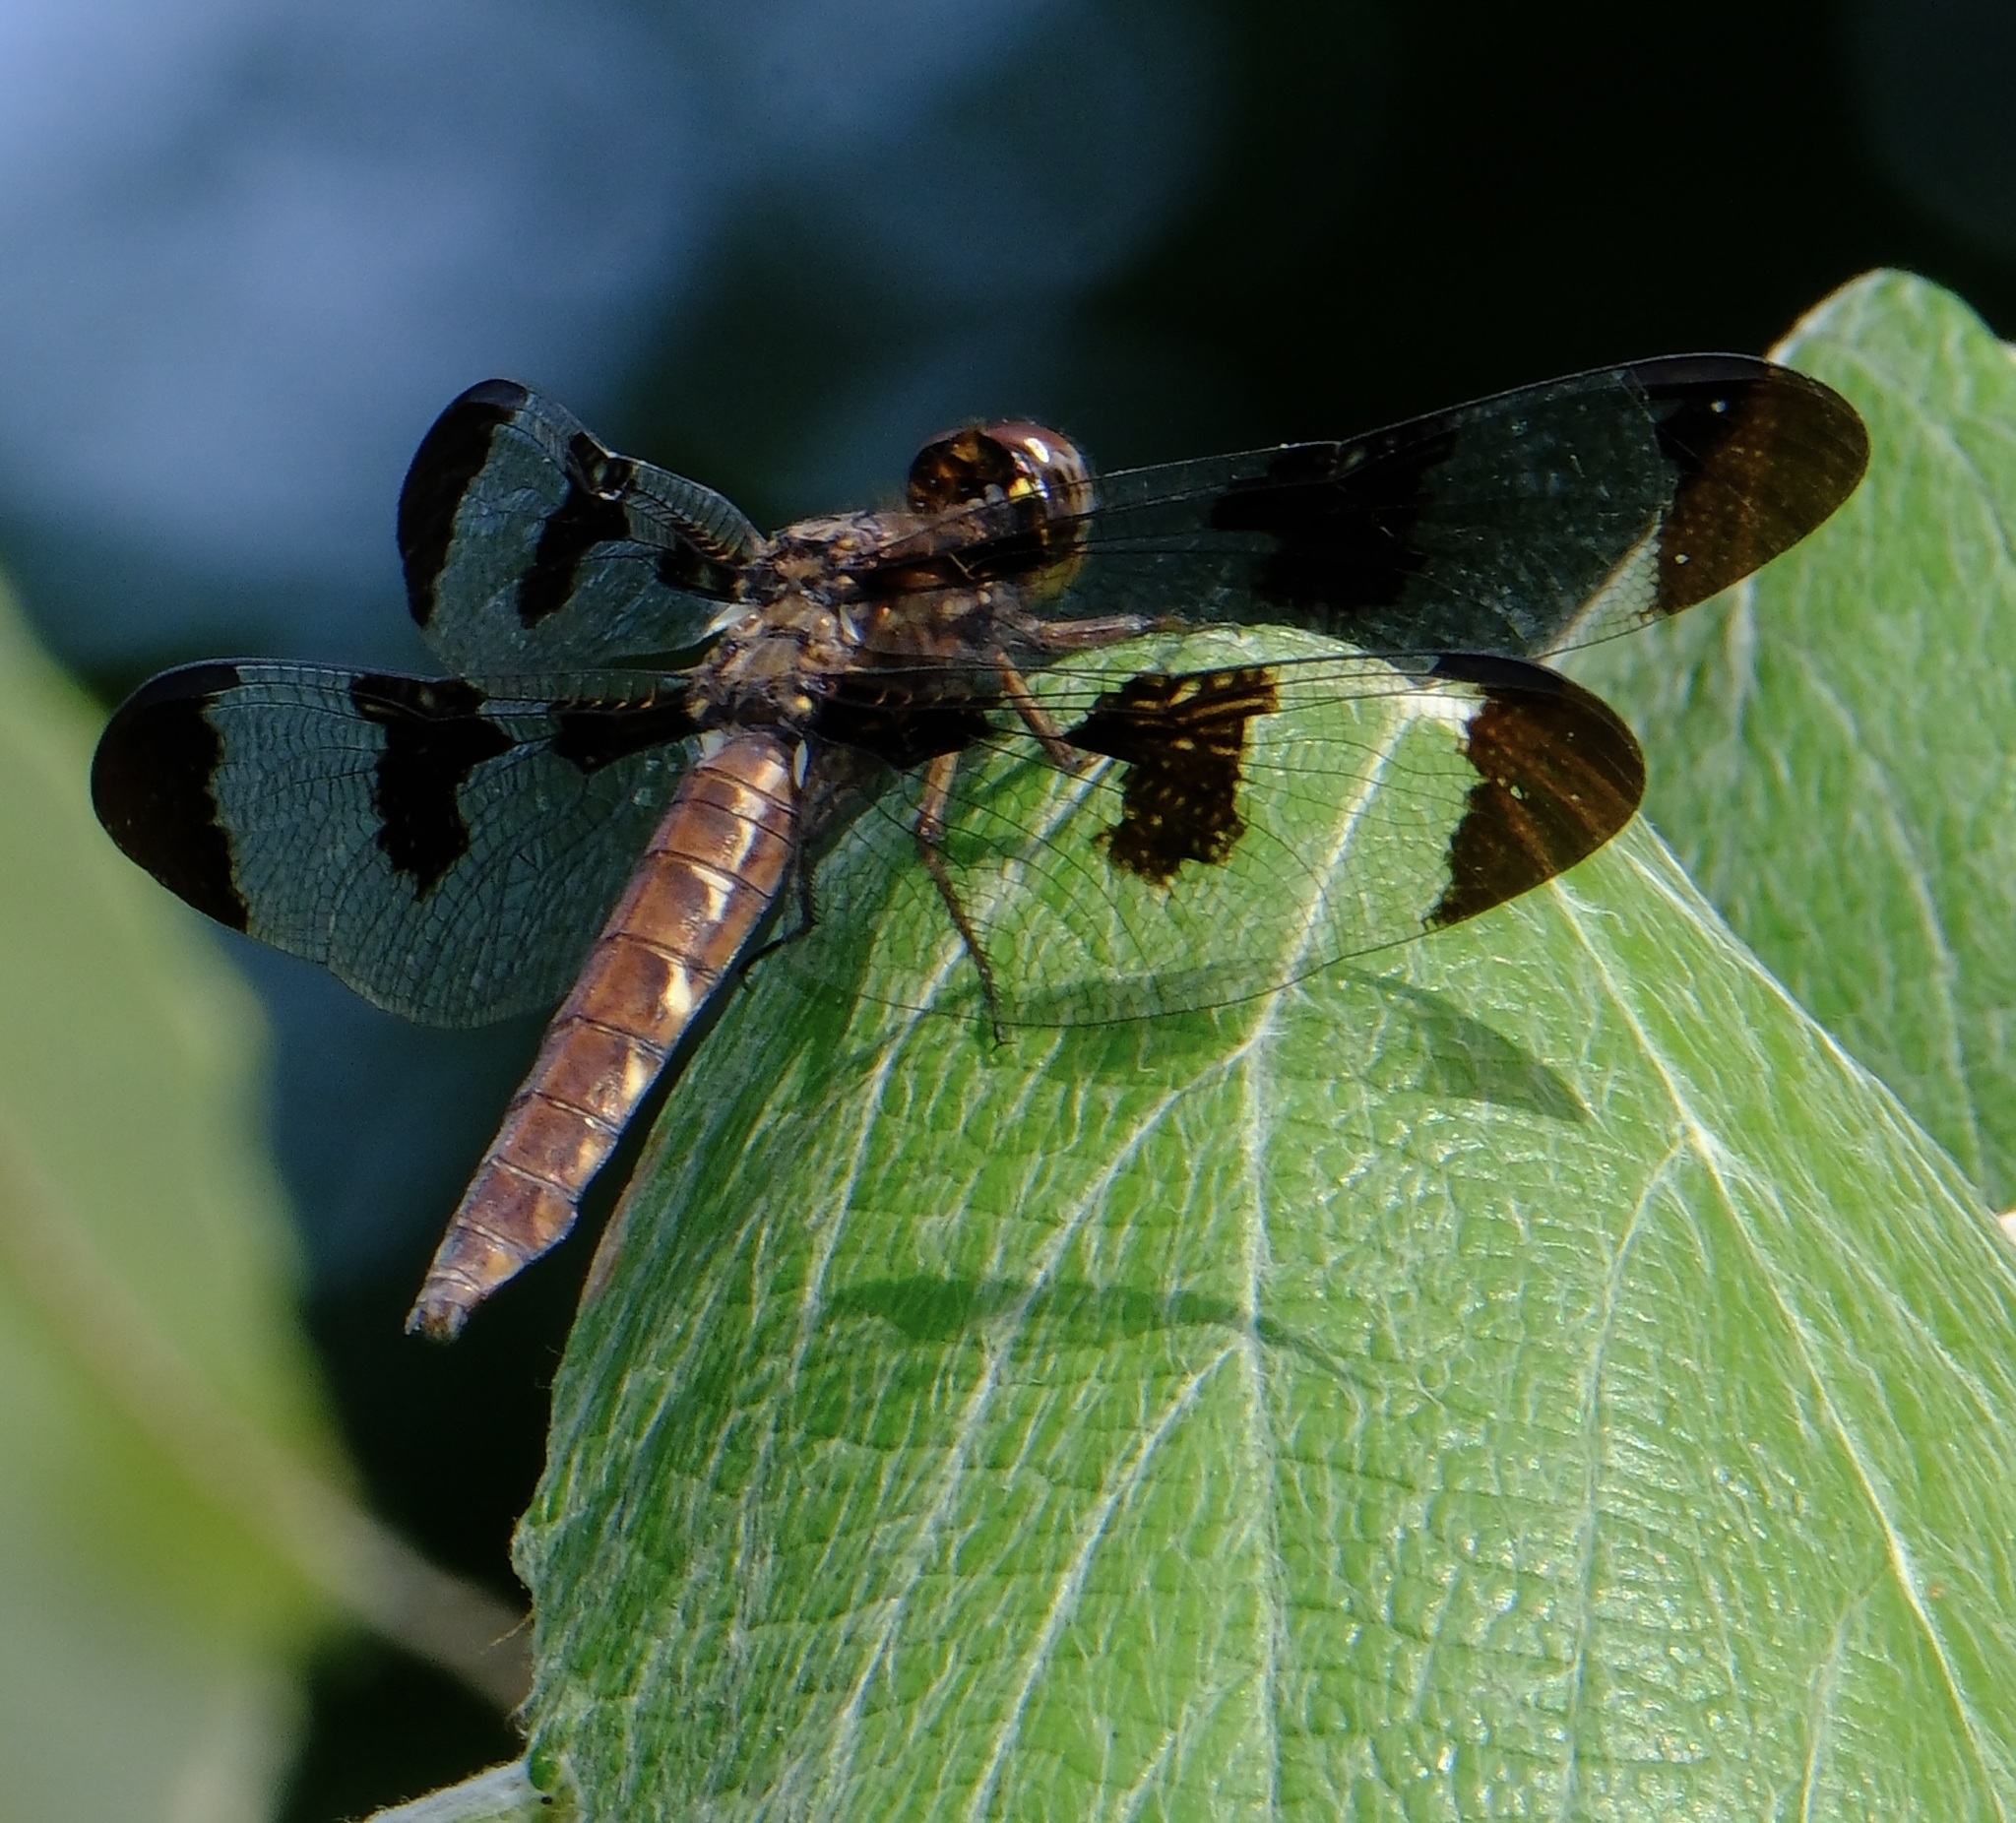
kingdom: Animalia
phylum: Arthropoda
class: Insecta
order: Odonata
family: Libellulidae
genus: Plathemis
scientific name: Plathemis lydia
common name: Common whitetail
